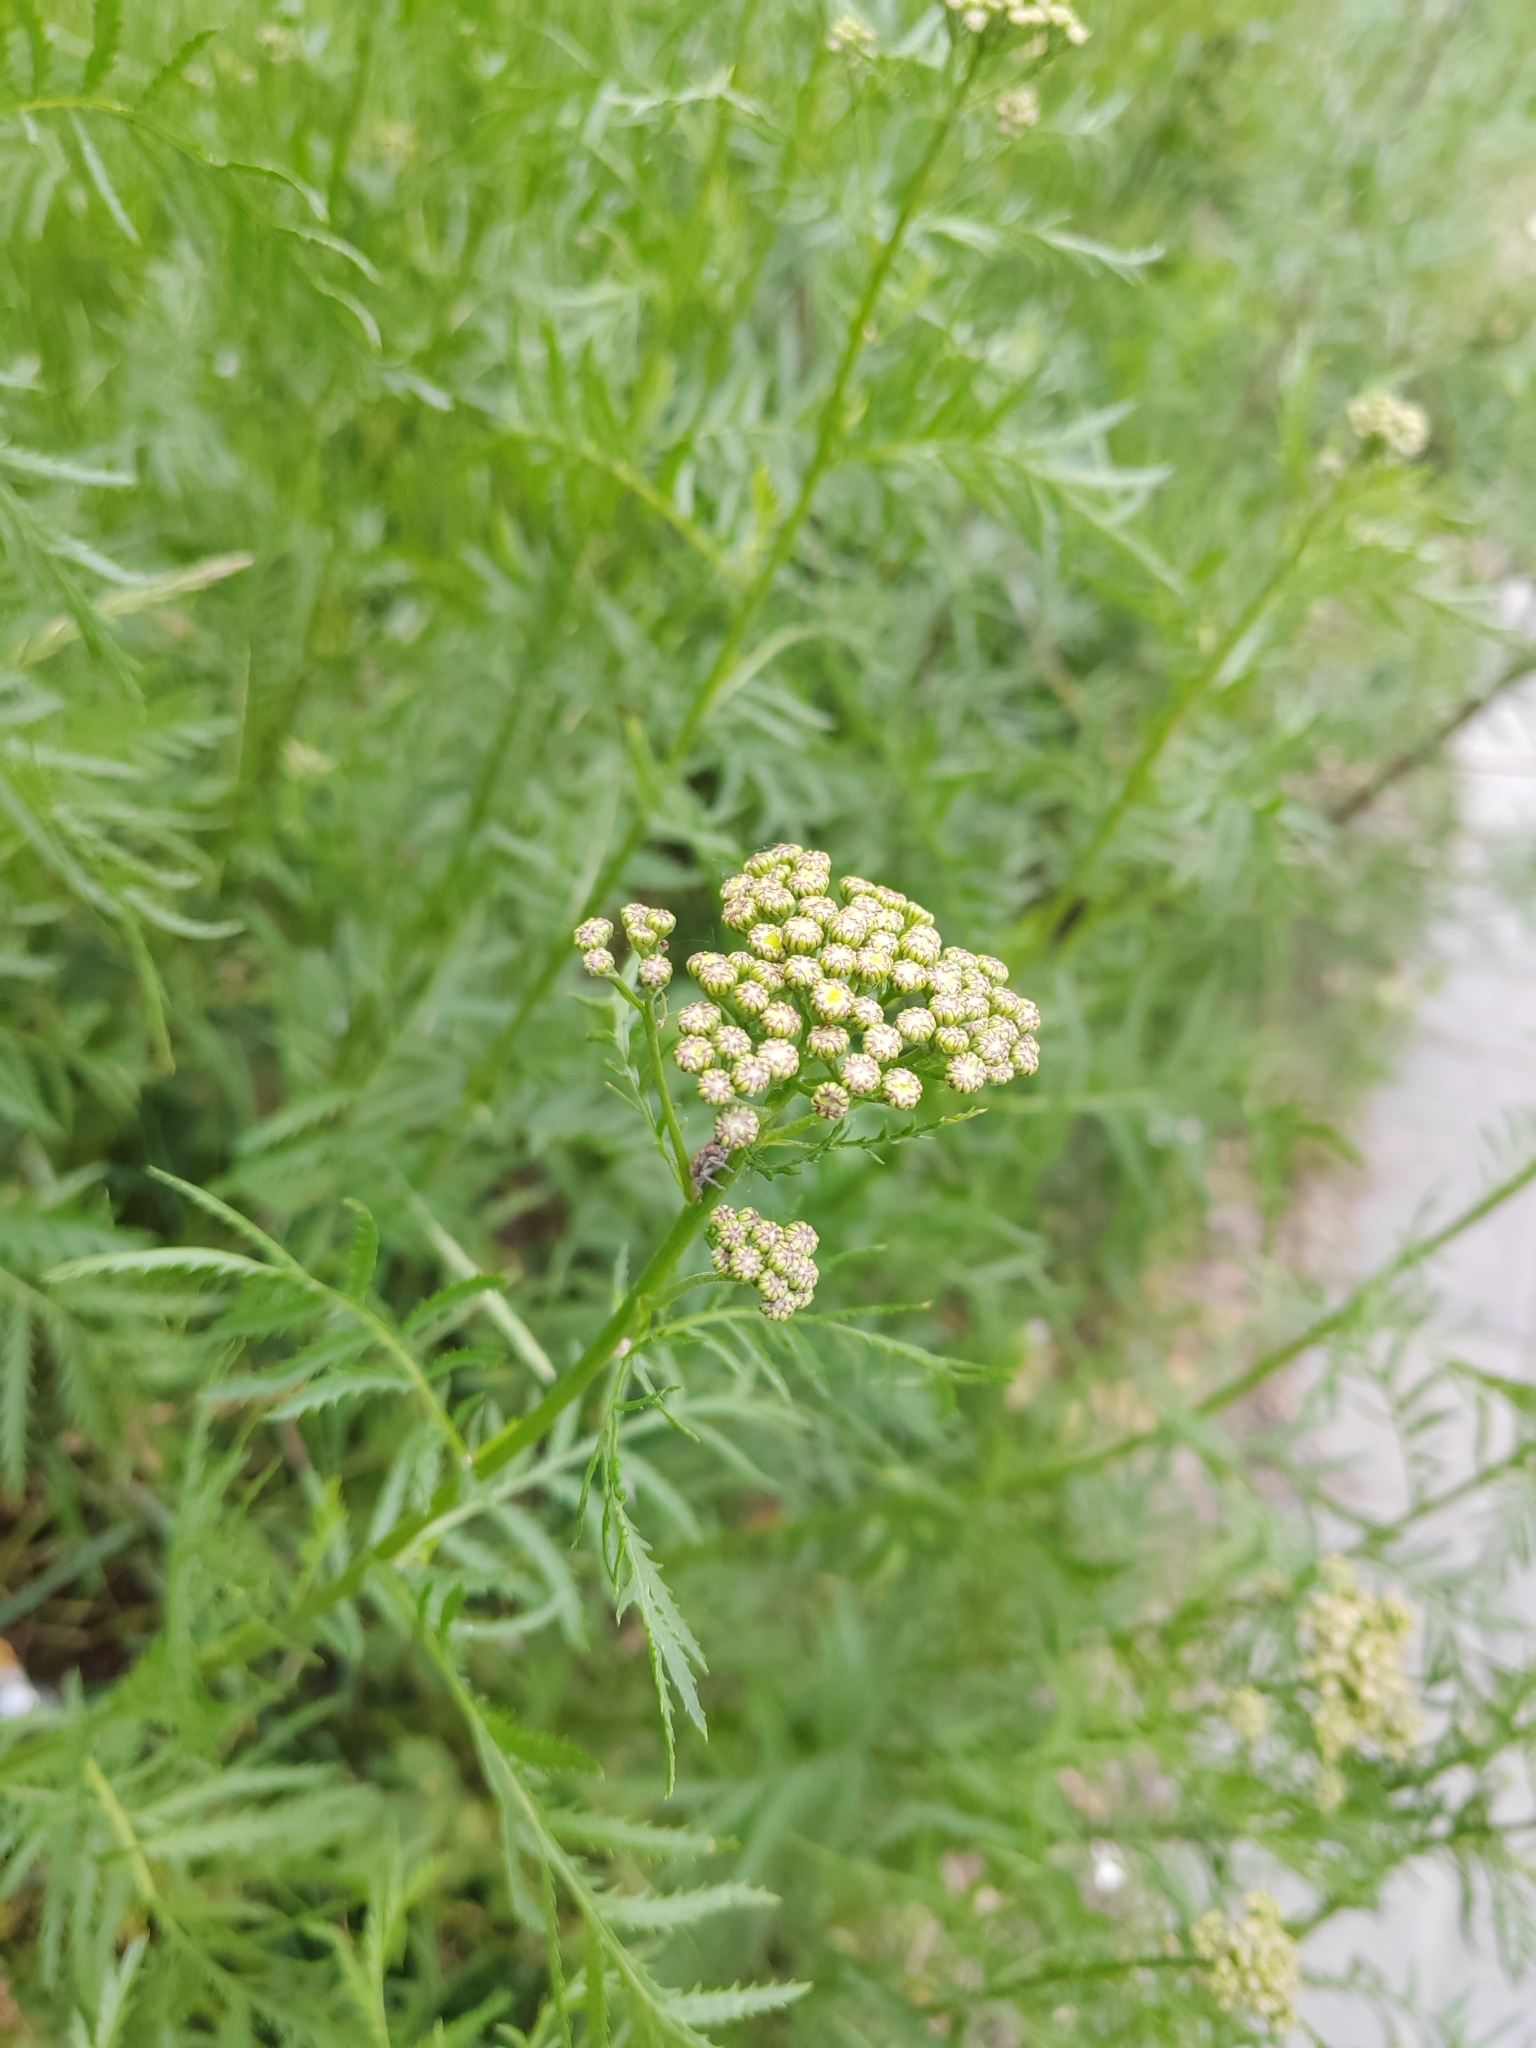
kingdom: Plantae
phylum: Tracheophyta
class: Magnoliopsida
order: Asterales
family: Asteraceae
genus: Tanacetum
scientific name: Tanacetum vulgare
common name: Common tansy
